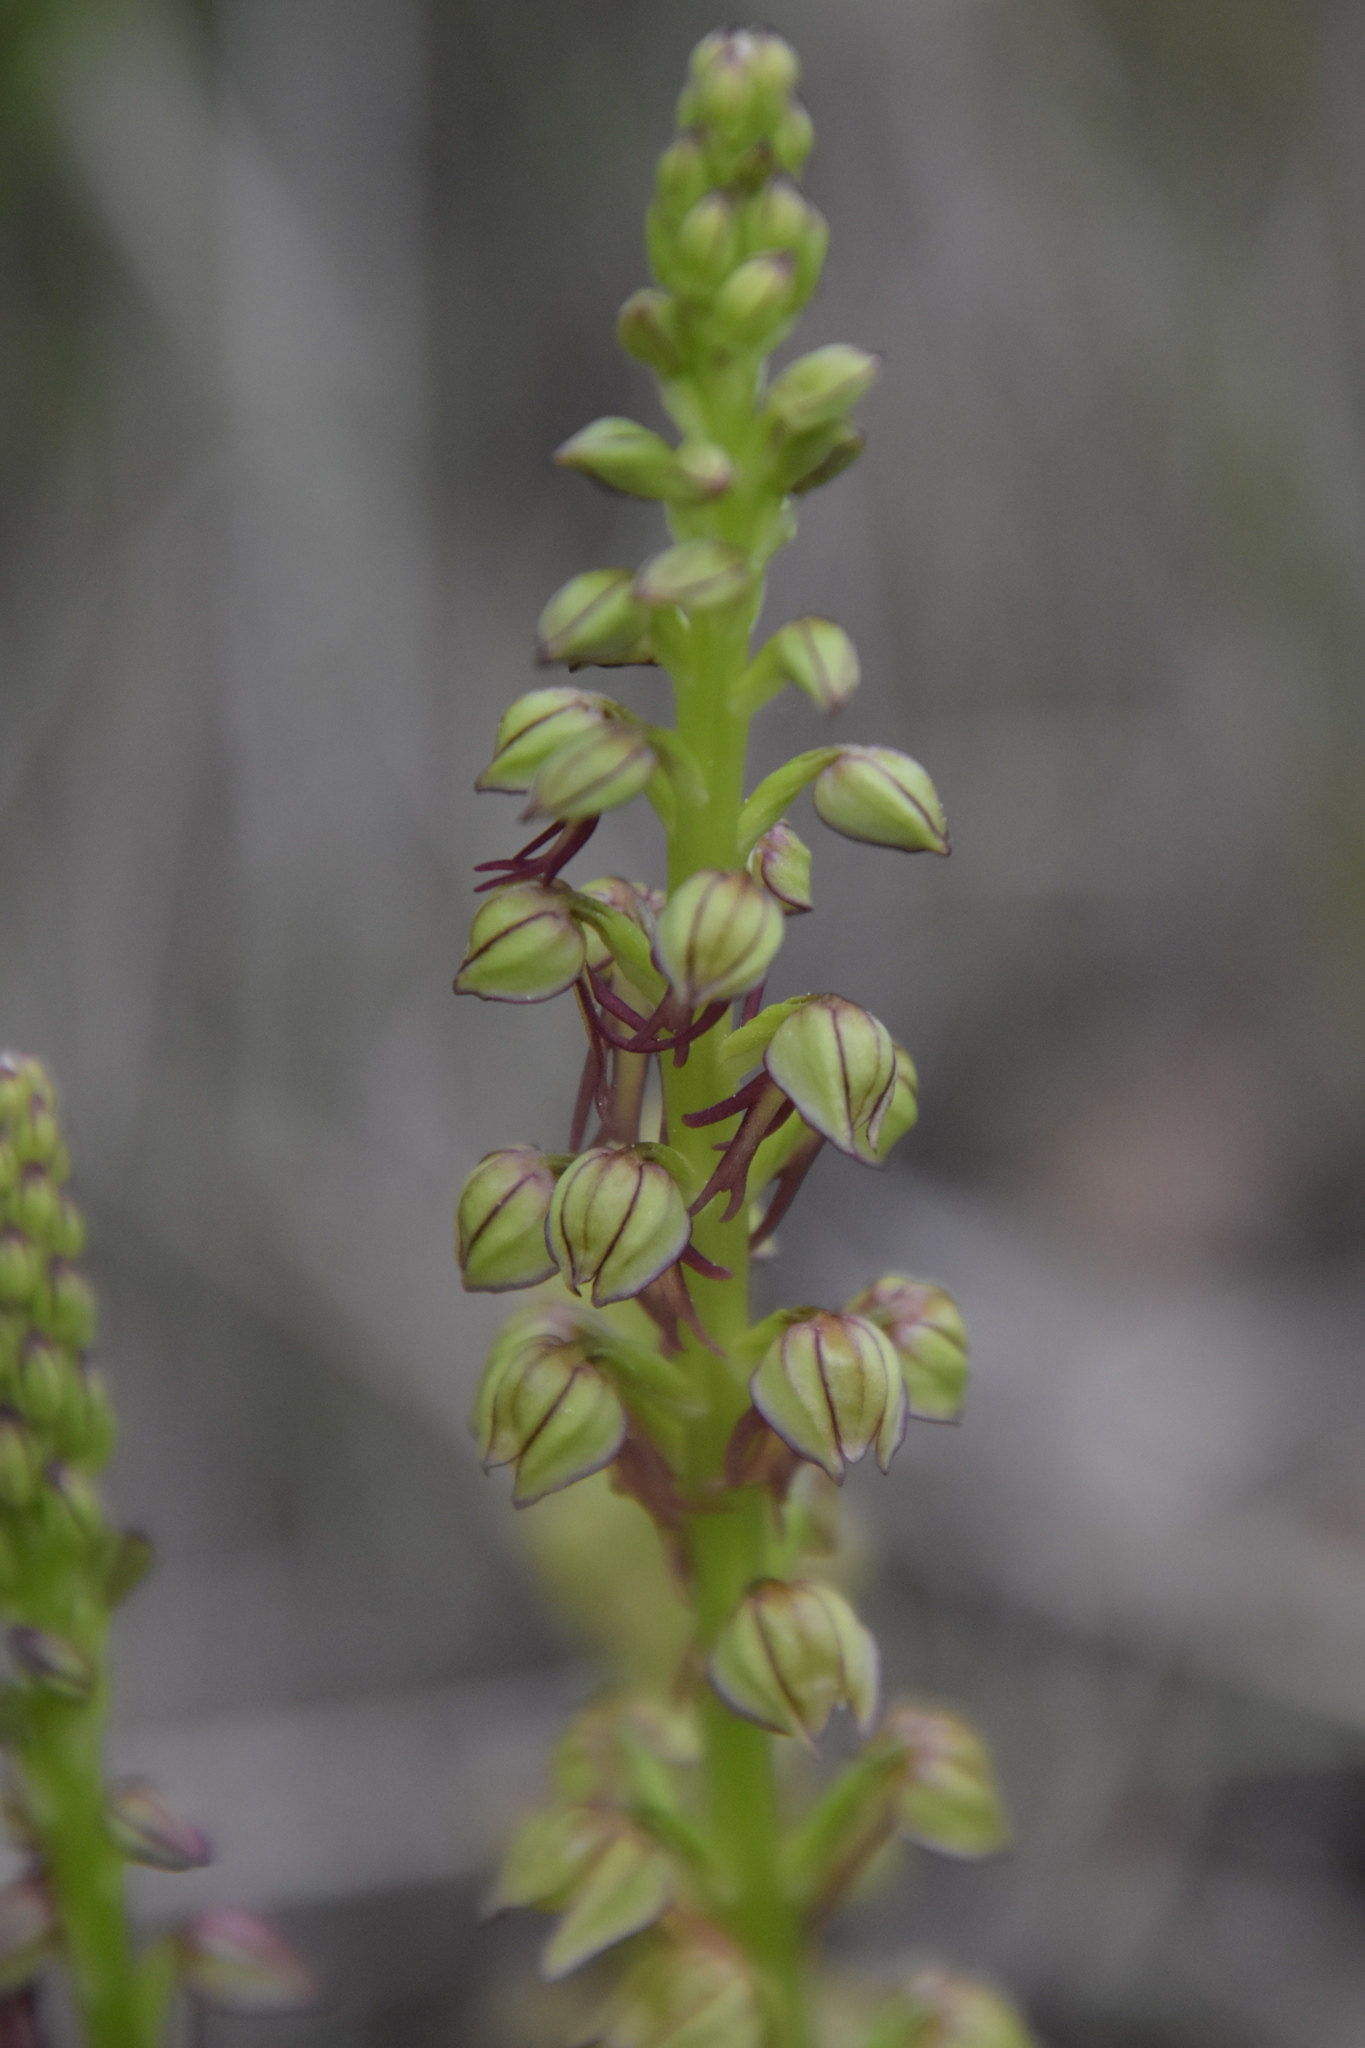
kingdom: Plantae
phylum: Tracheophyta
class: Liliopsida
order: Asparagales
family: Orchidaceae
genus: Orchis
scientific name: Orchis anthropophora
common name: Man orchid
